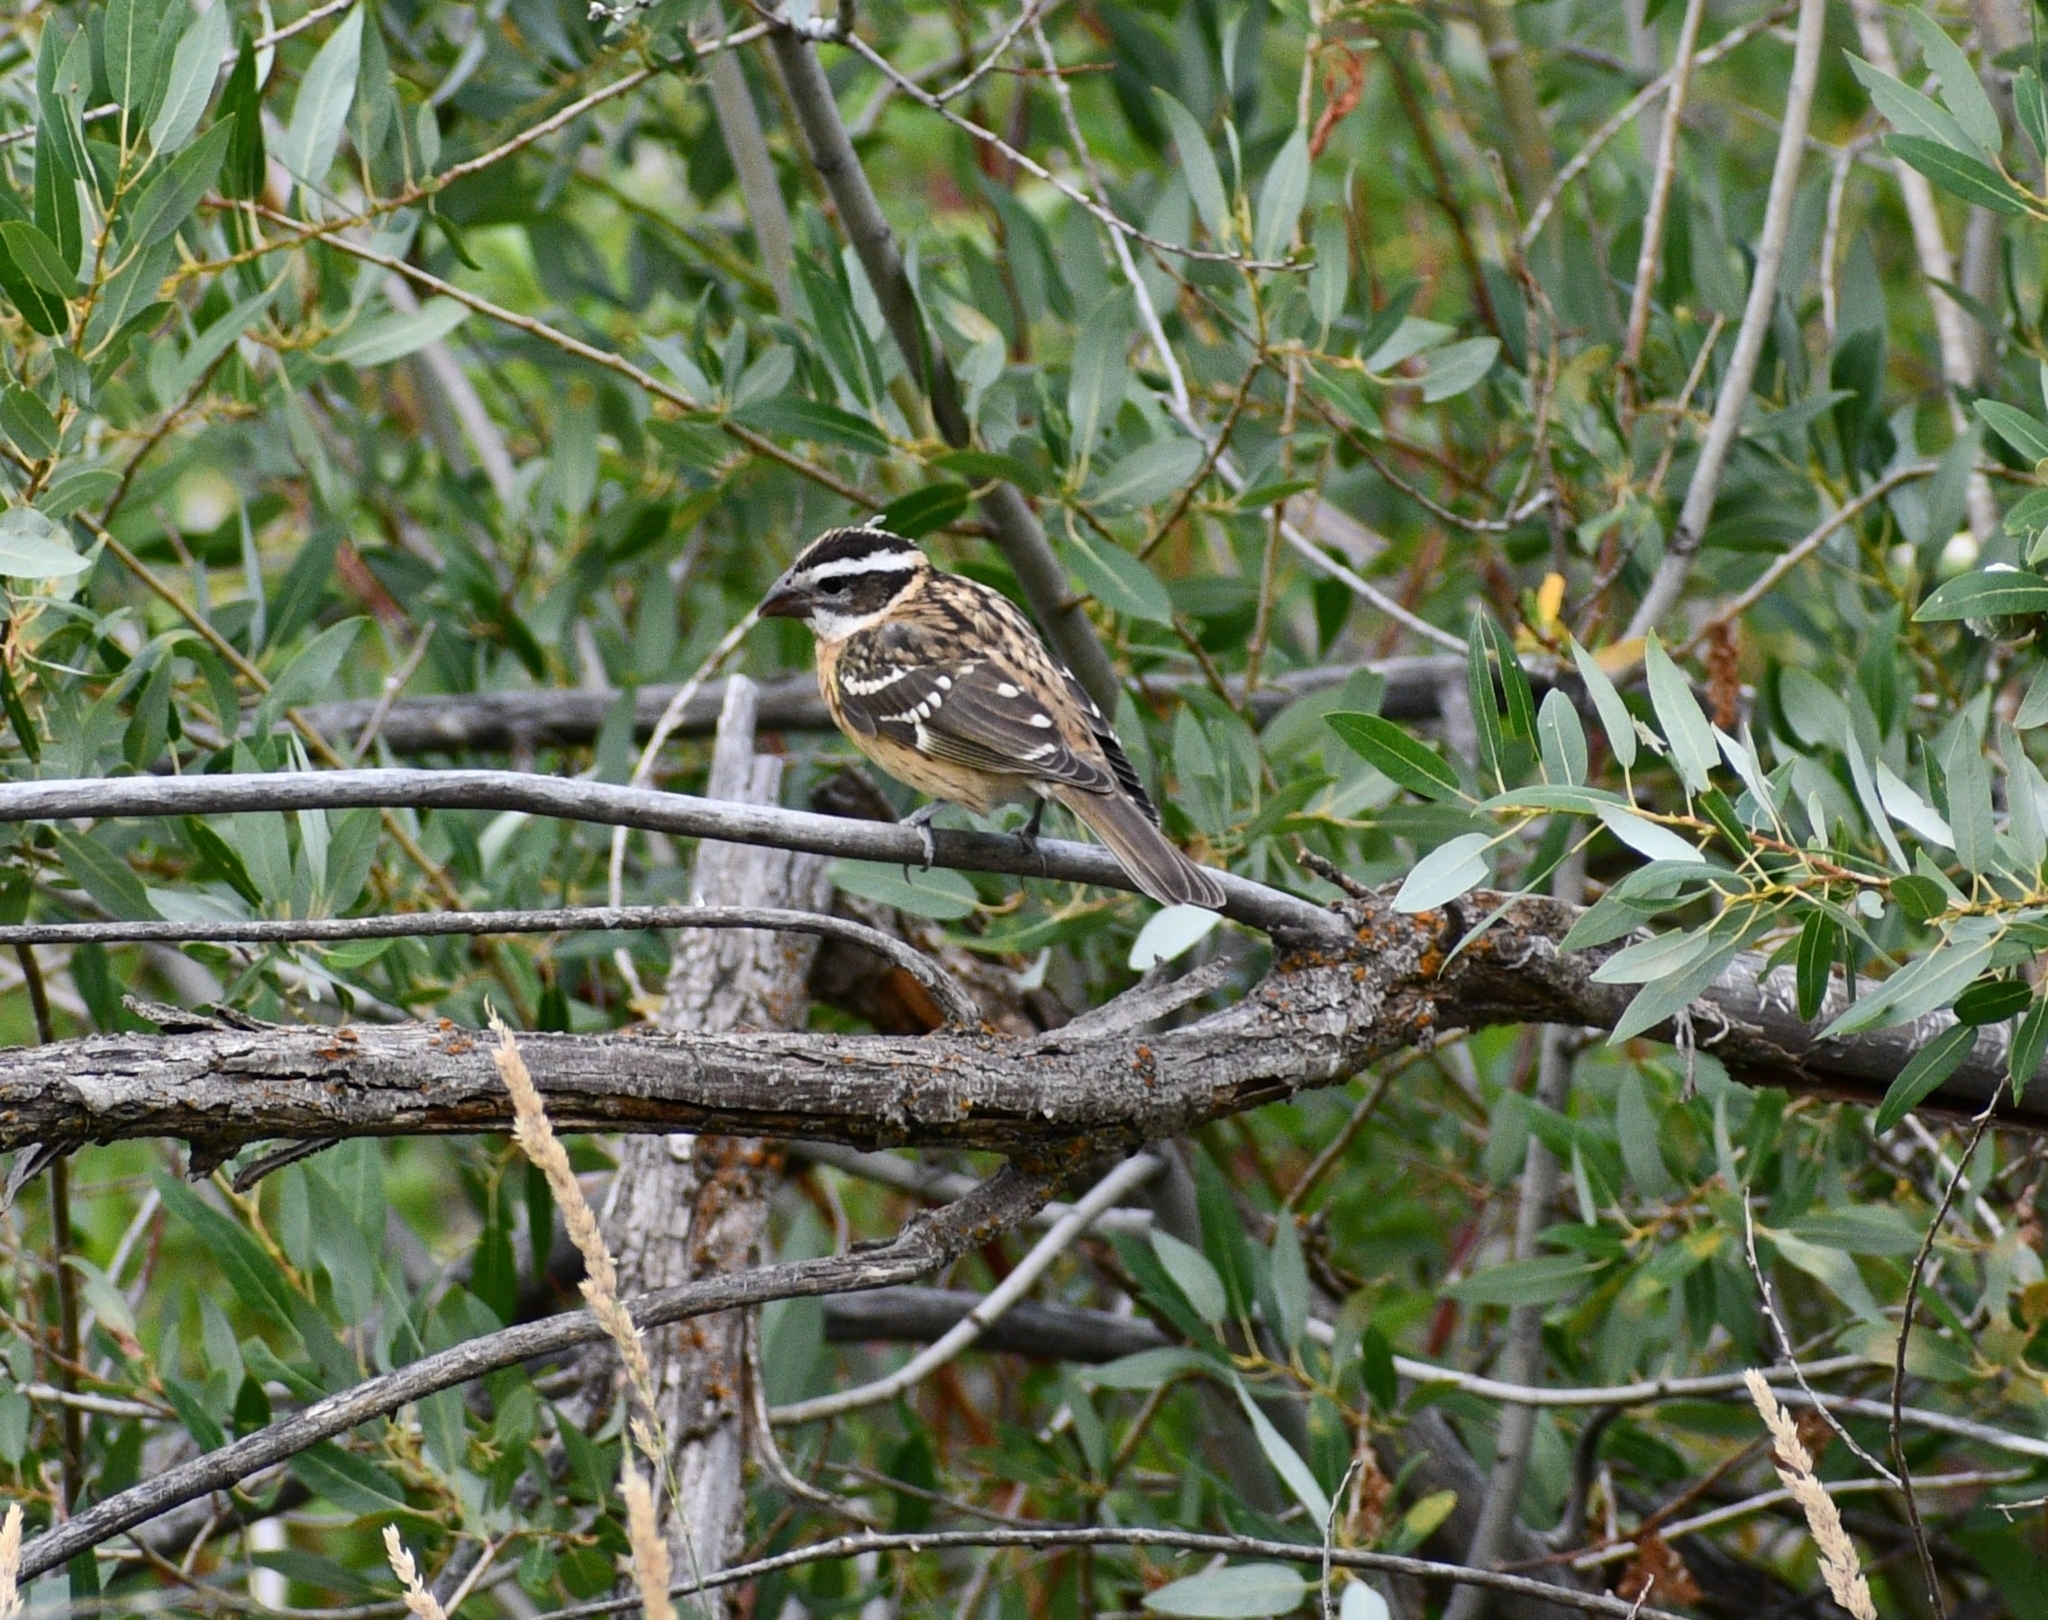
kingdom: Animalia
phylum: Chordata
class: Aves
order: Passeriformes
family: Cardinalidae
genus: Pheucticus
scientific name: Pheucticus melanocephalus
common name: Black-headed grosbeak
